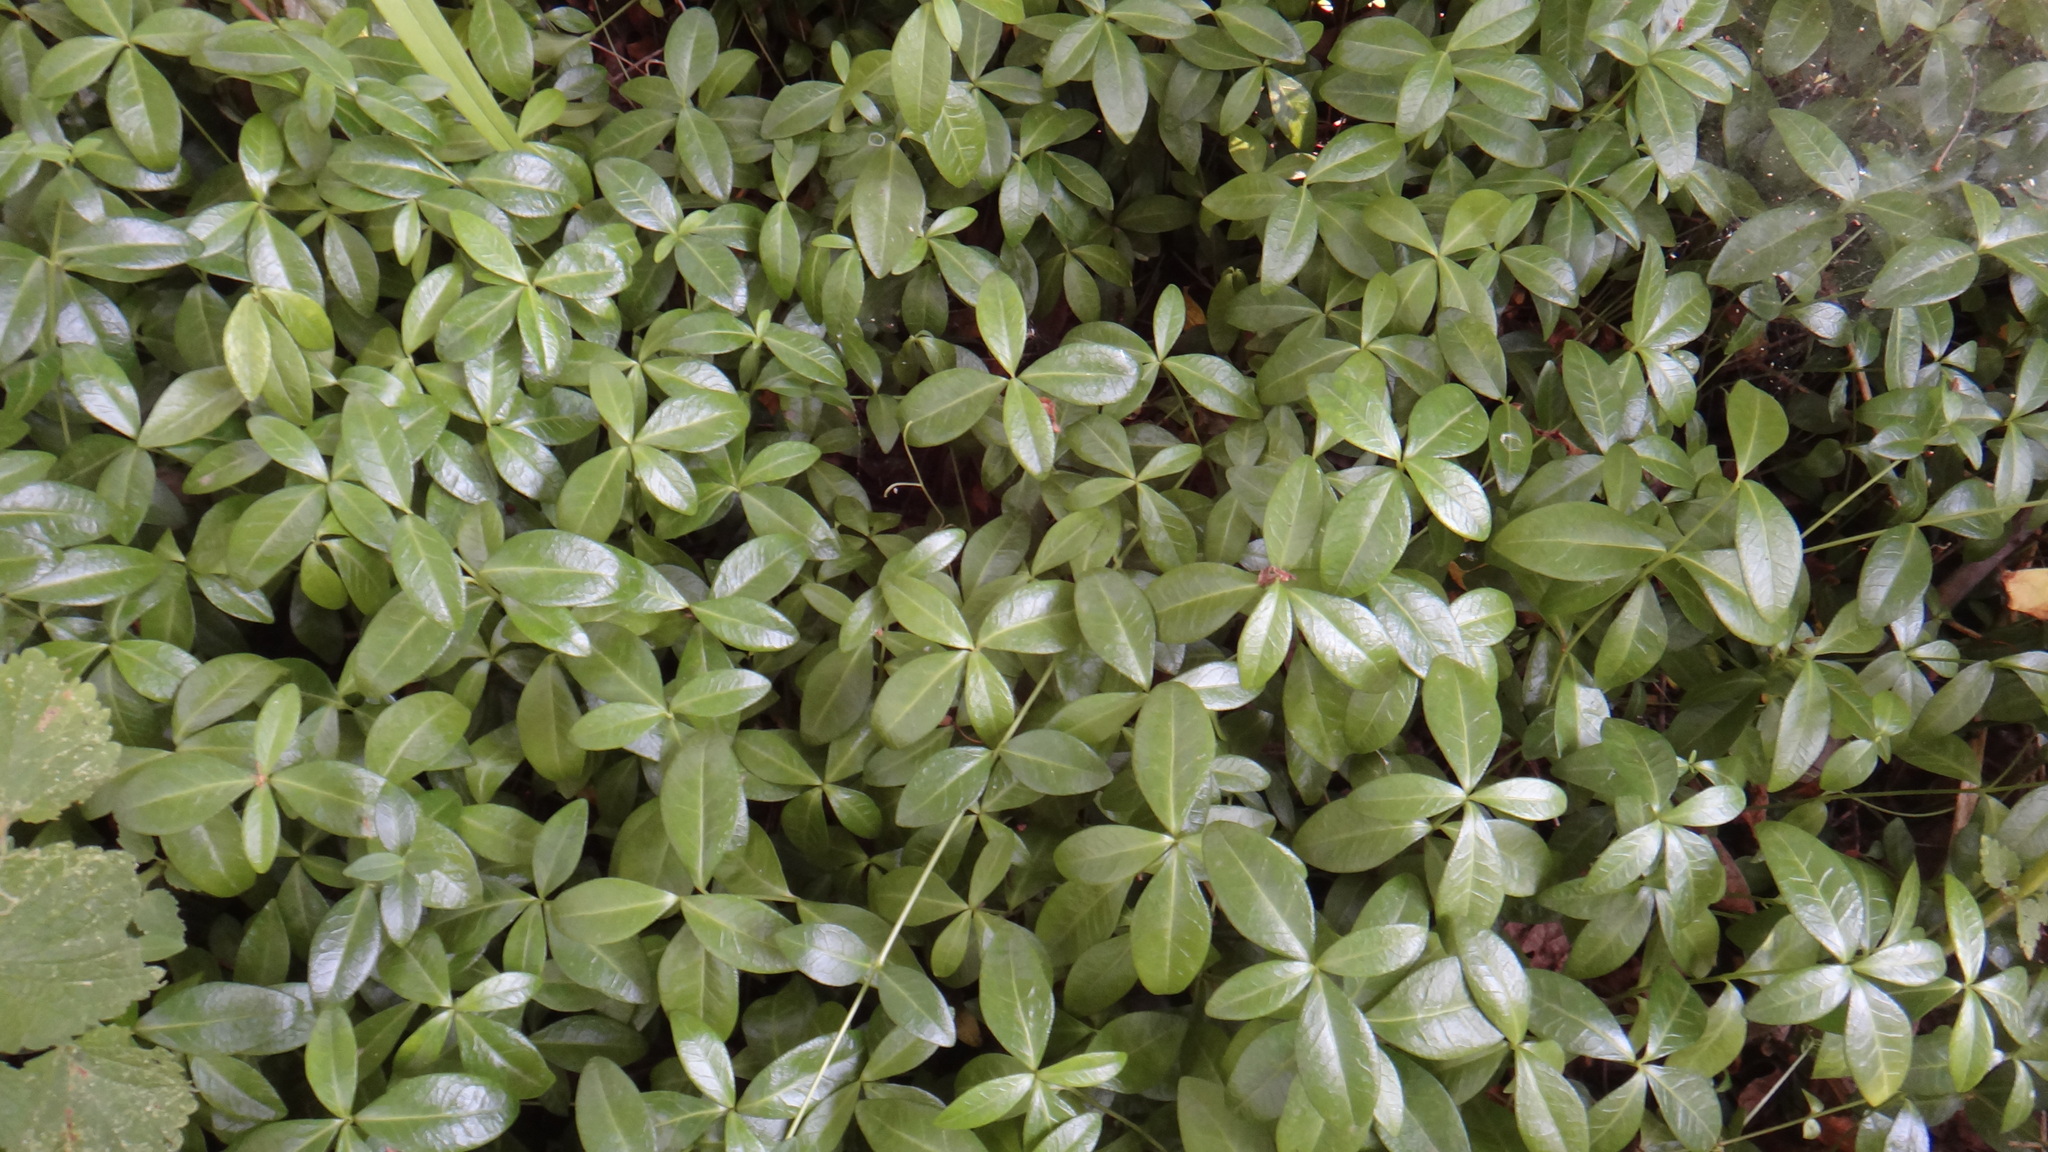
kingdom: Plantae
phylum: Tracheophyta
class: Magnoliopsida
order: Gentianales
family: Apocynaceae
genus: Vinca
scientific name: Vinca minor
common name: Lesser periwinkle
